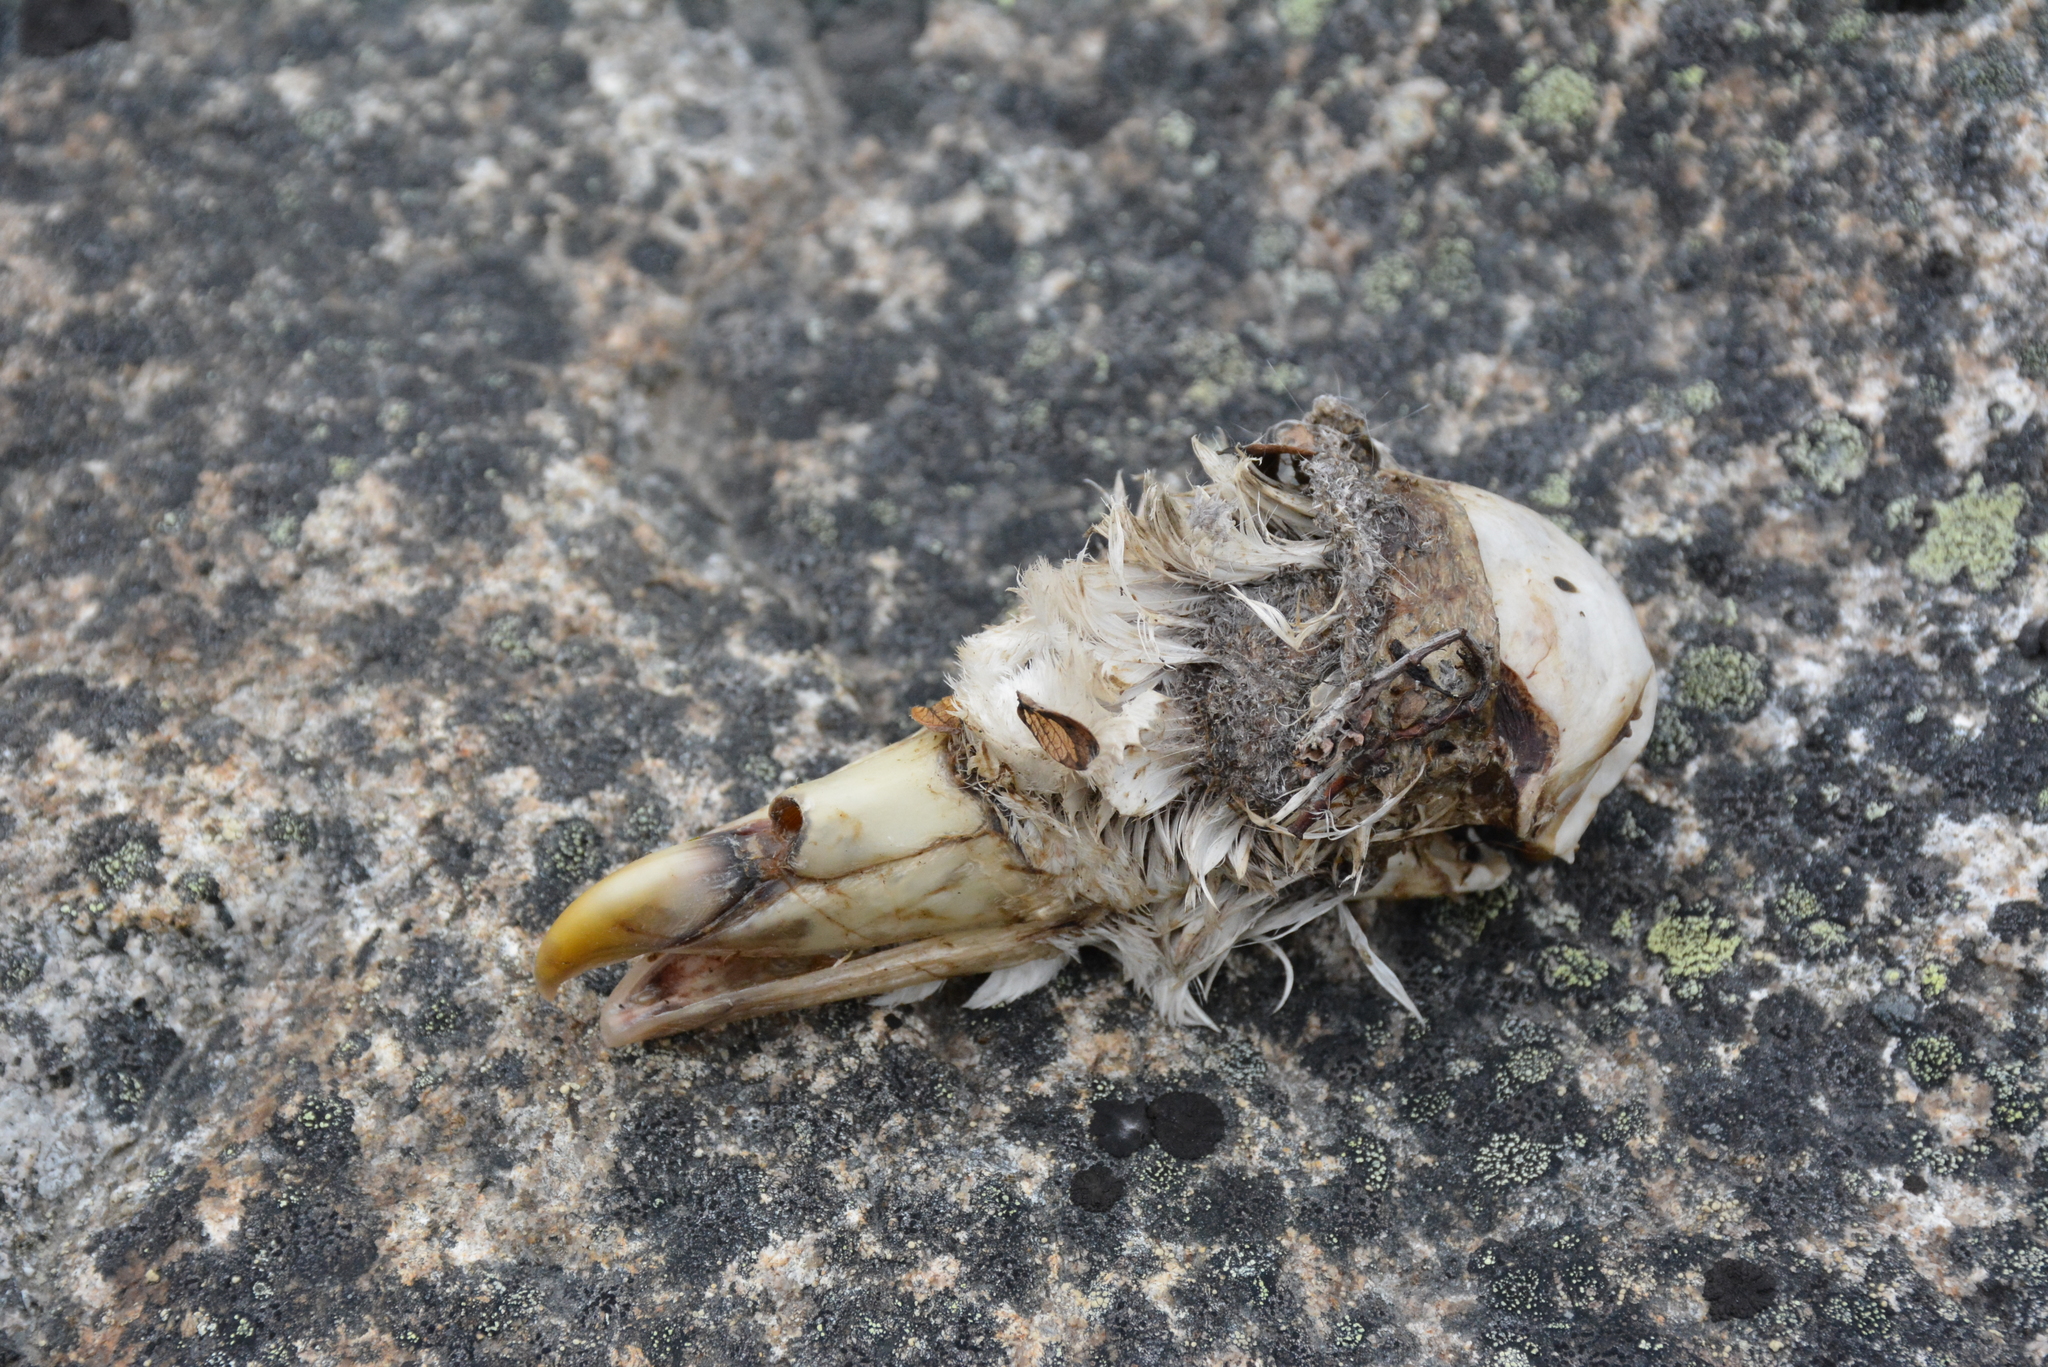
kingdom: Animalia
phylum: Chordata
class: Aves
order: Procellariiformes
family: Procellariidae
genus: Fulmarus
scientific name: Fulmarus glacialis
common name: Northern fulmar
